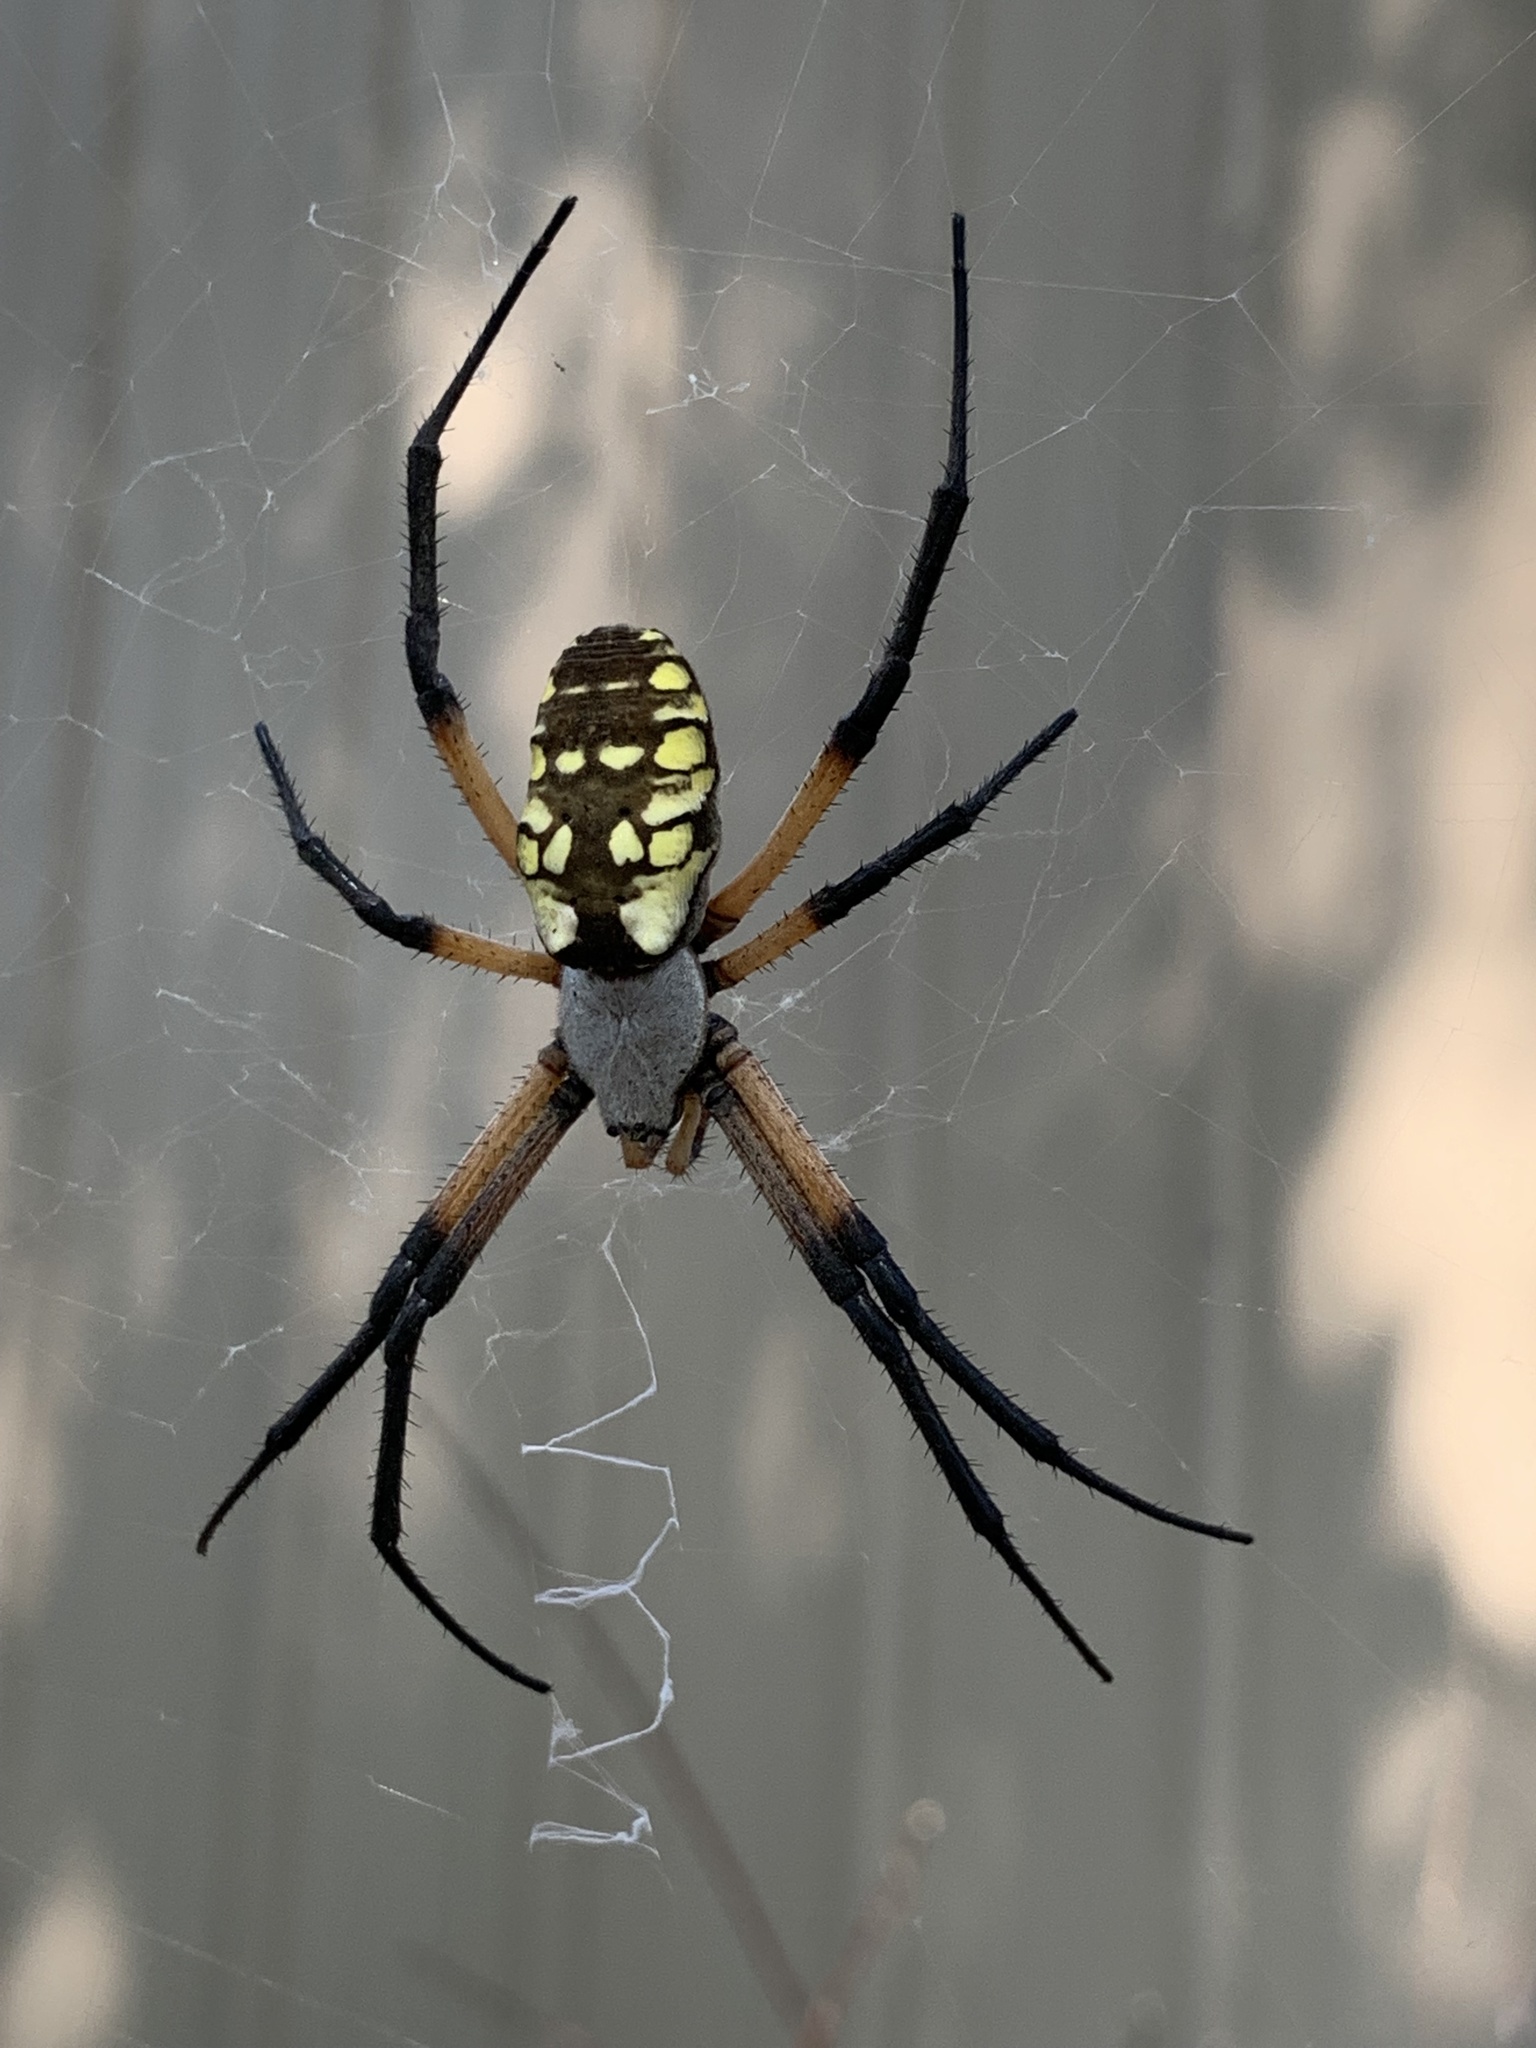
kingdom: Animalia
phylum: Arthropoda
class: Arachnida
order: Araneae
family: Araneidae
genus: Argiope
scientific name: Argiope aurantia
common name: Orb weavers
